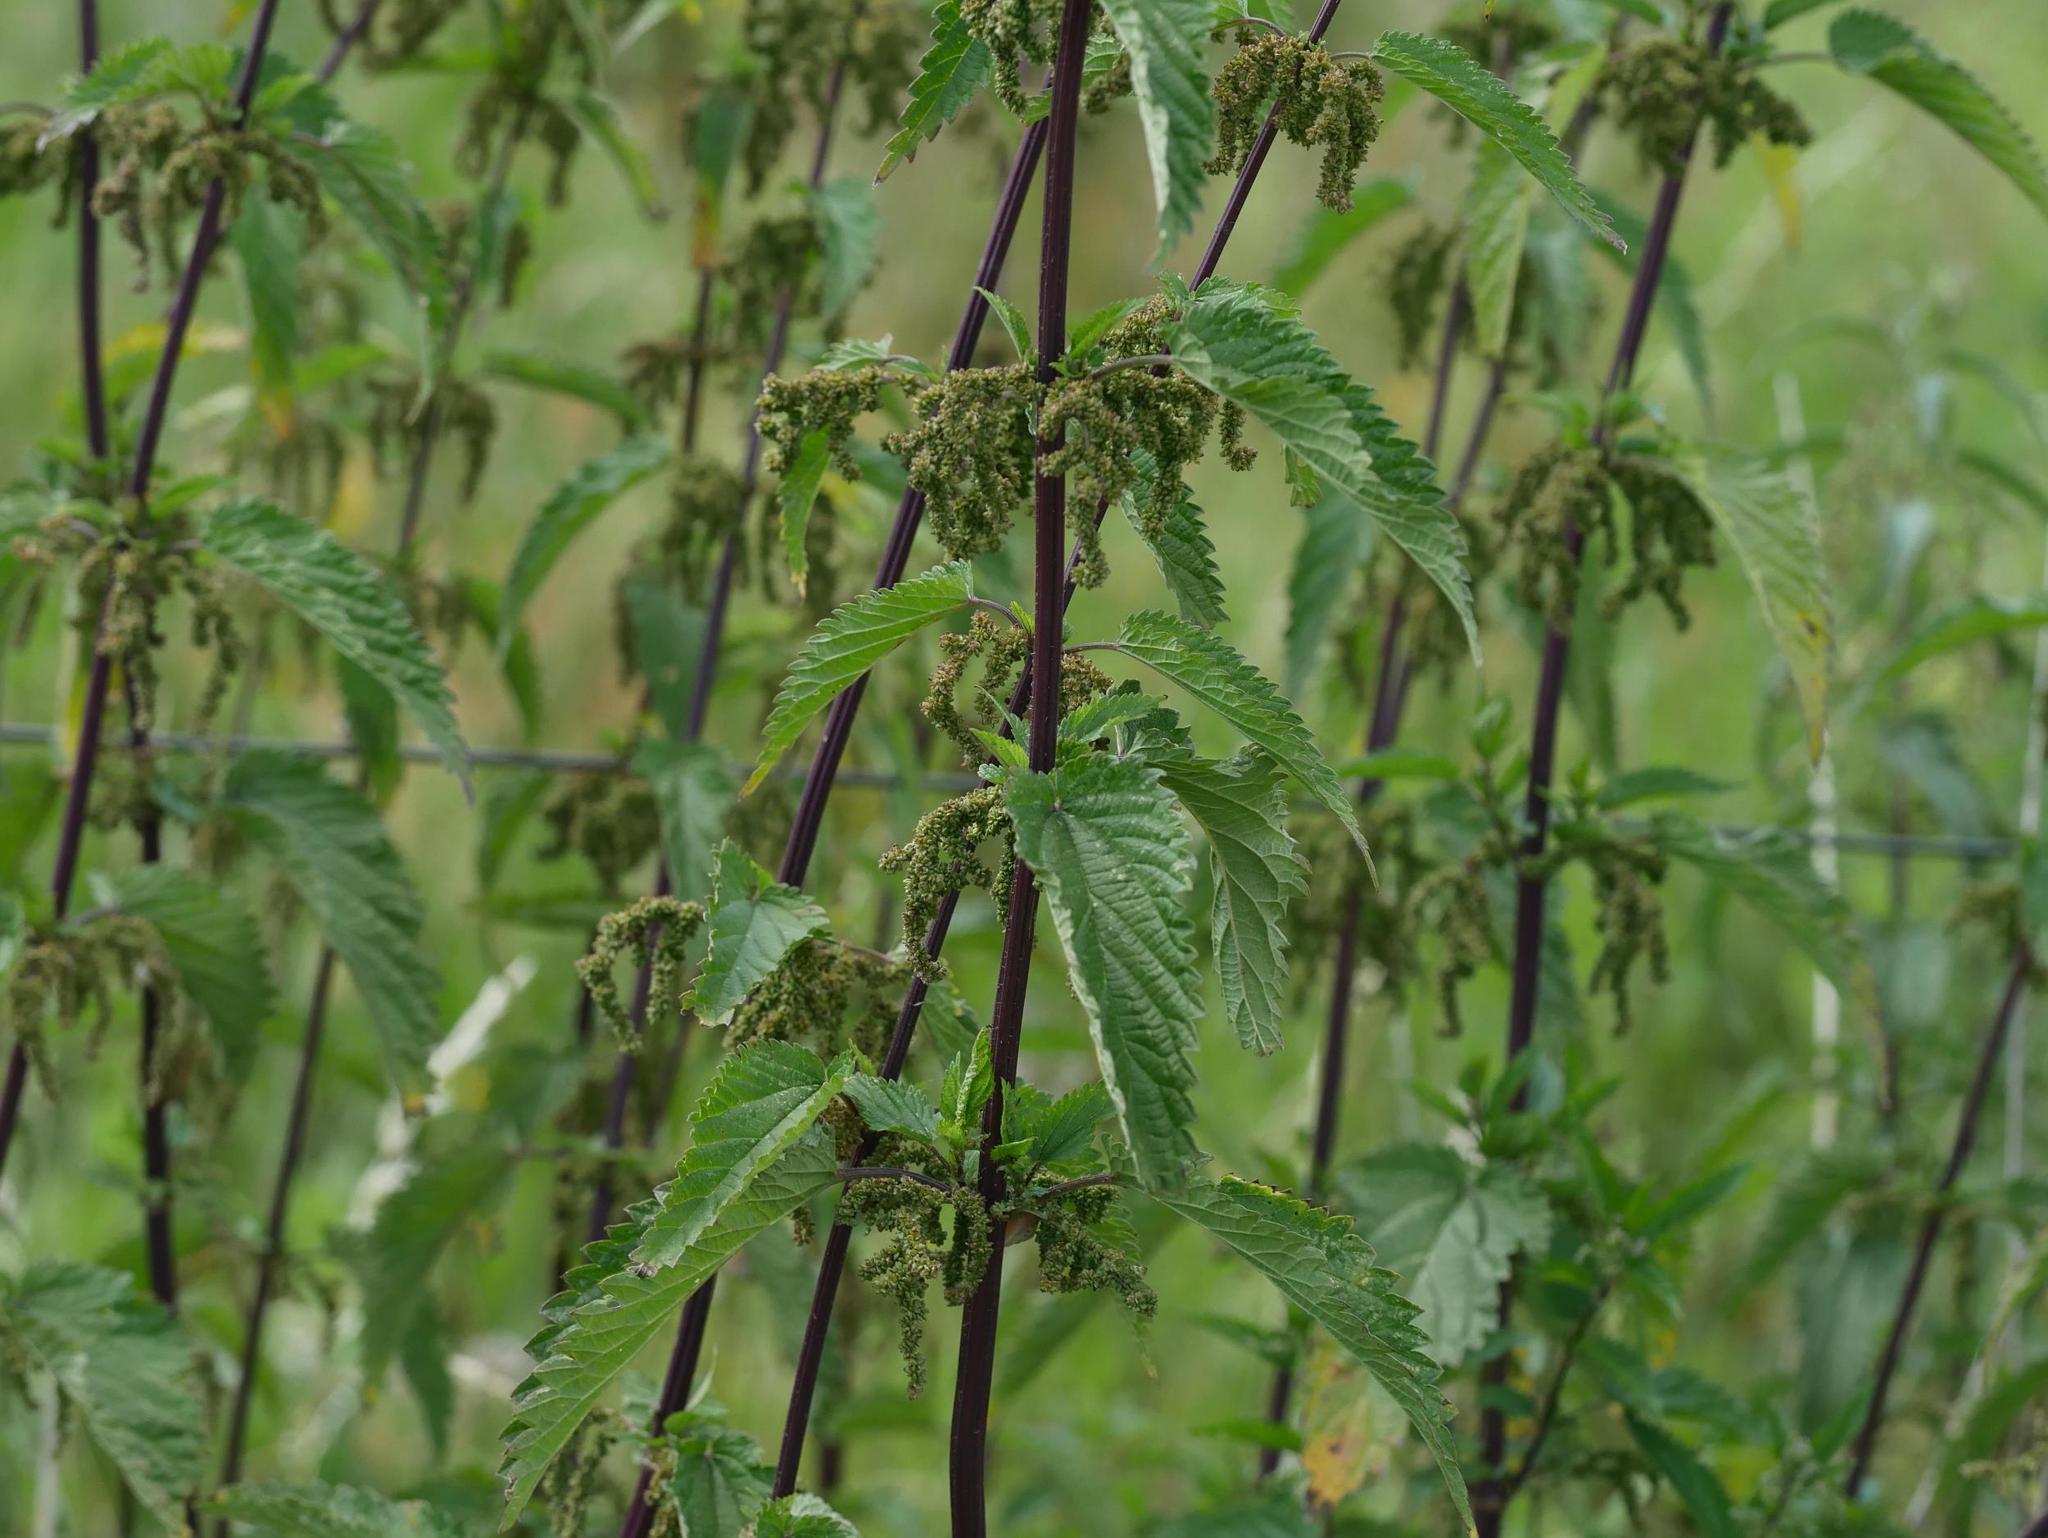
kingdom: Plantae
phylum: Tracheophyta
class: Magnoliopsida
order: Rosales
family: Urticaceae
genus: Urtica
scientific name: Urtica dioica
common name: Common nettle
